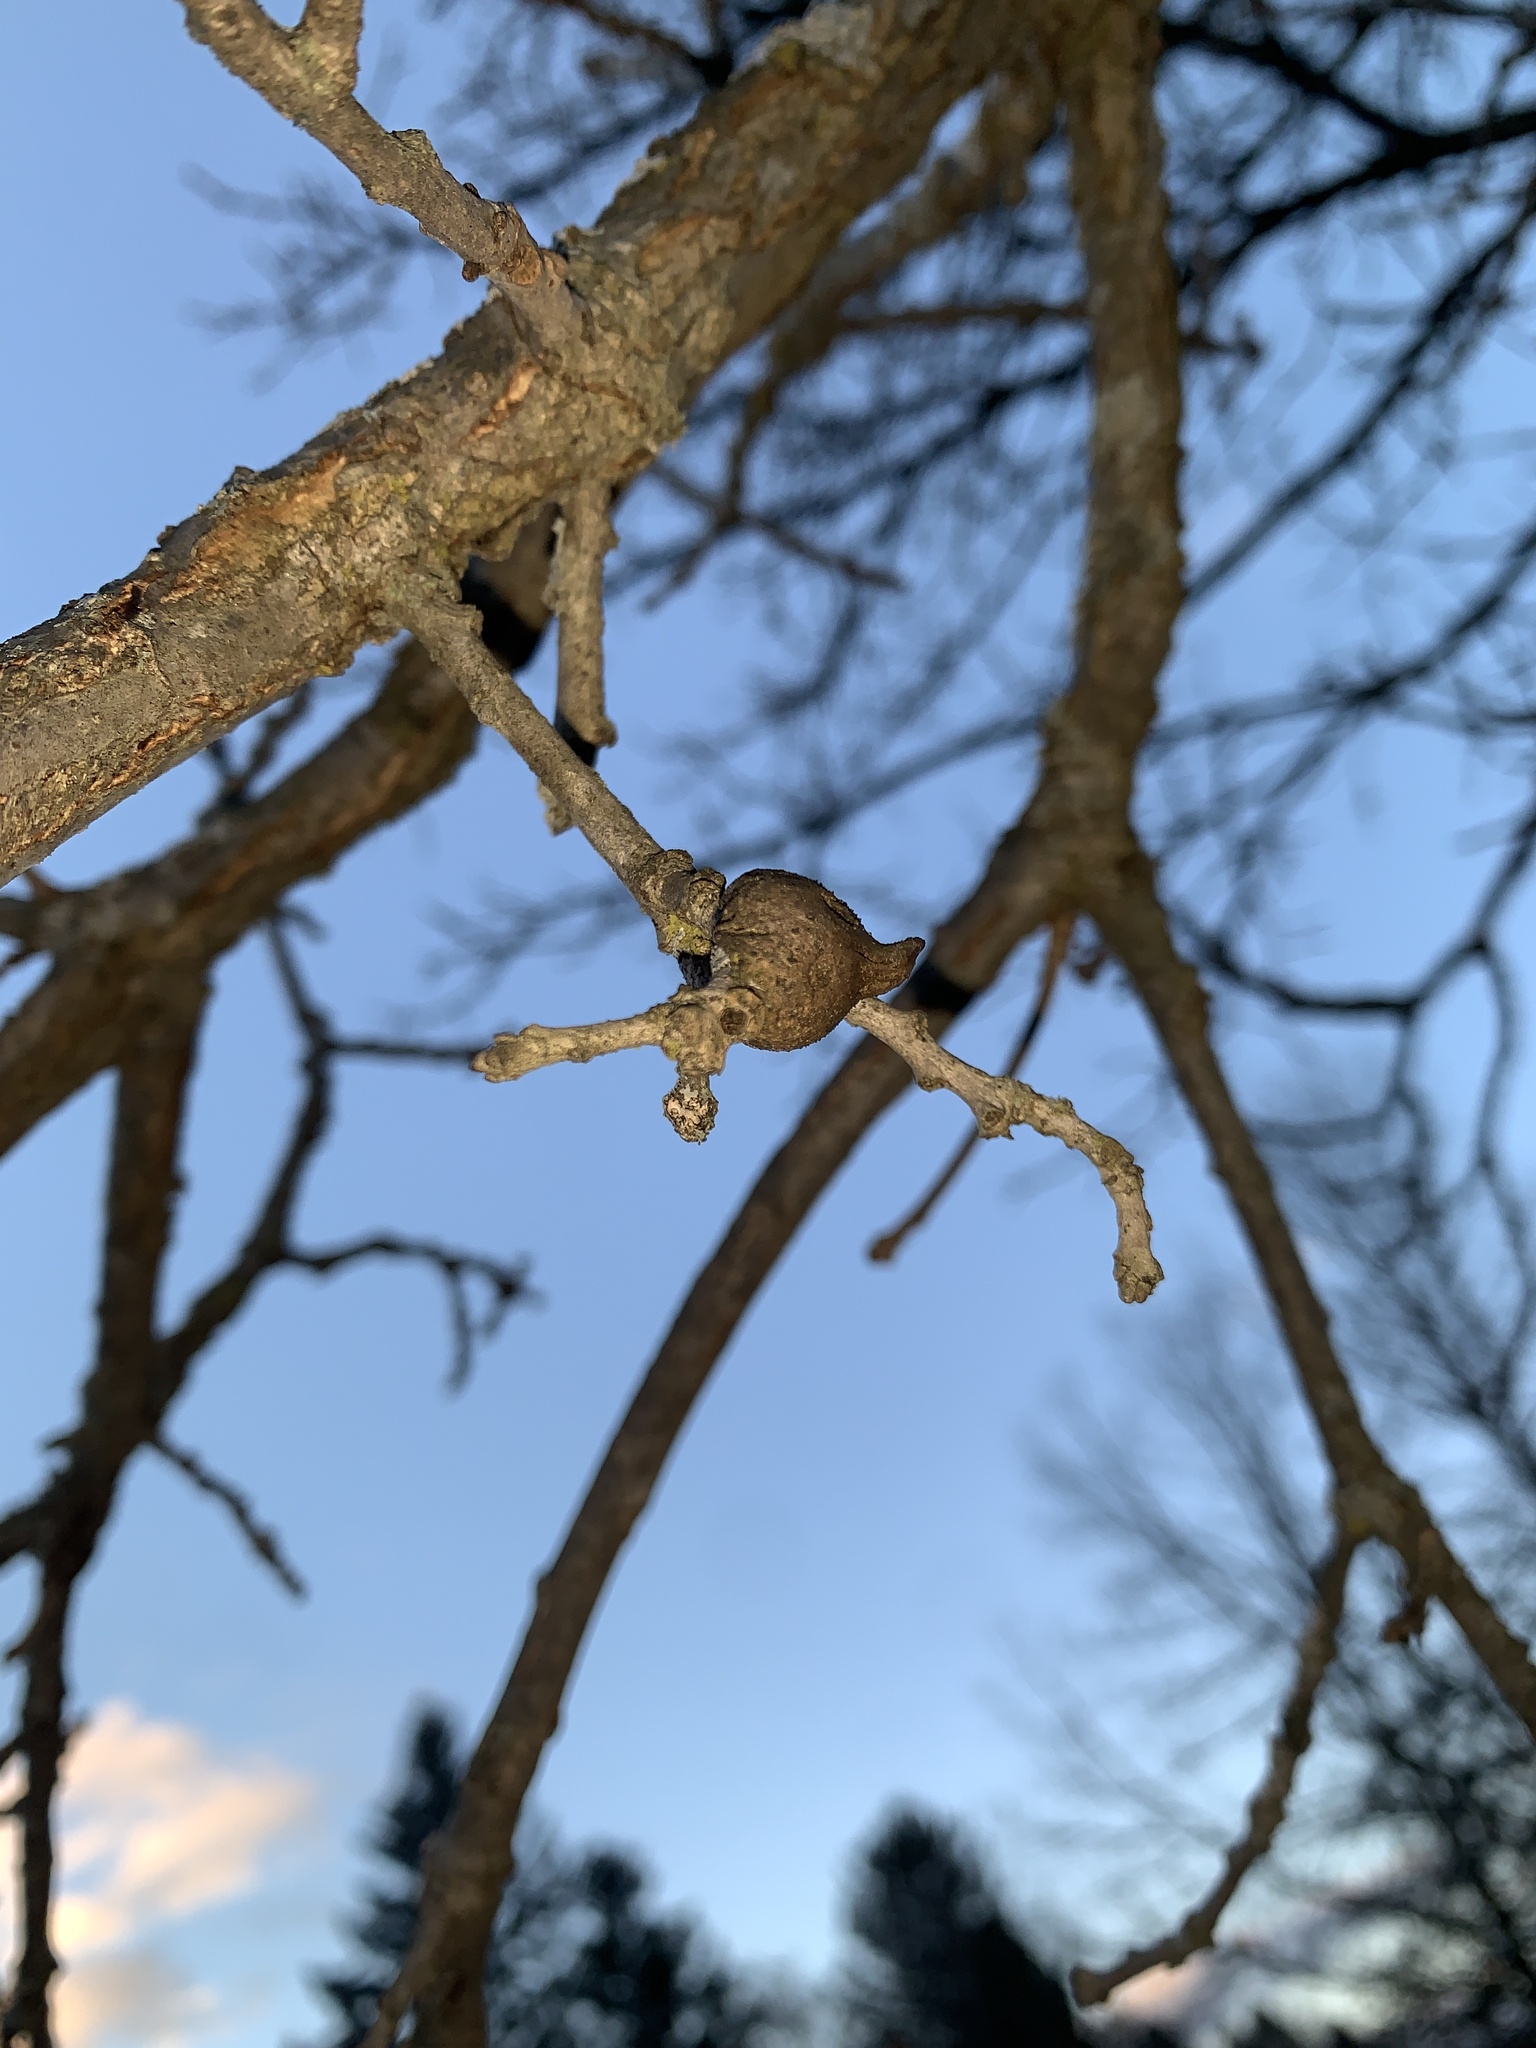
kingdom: Animalia
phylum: Arthropoda
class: Insecta
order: Hymenoptera
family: Cynipidae
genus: Disholcaspis
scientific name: Disholcaspis
